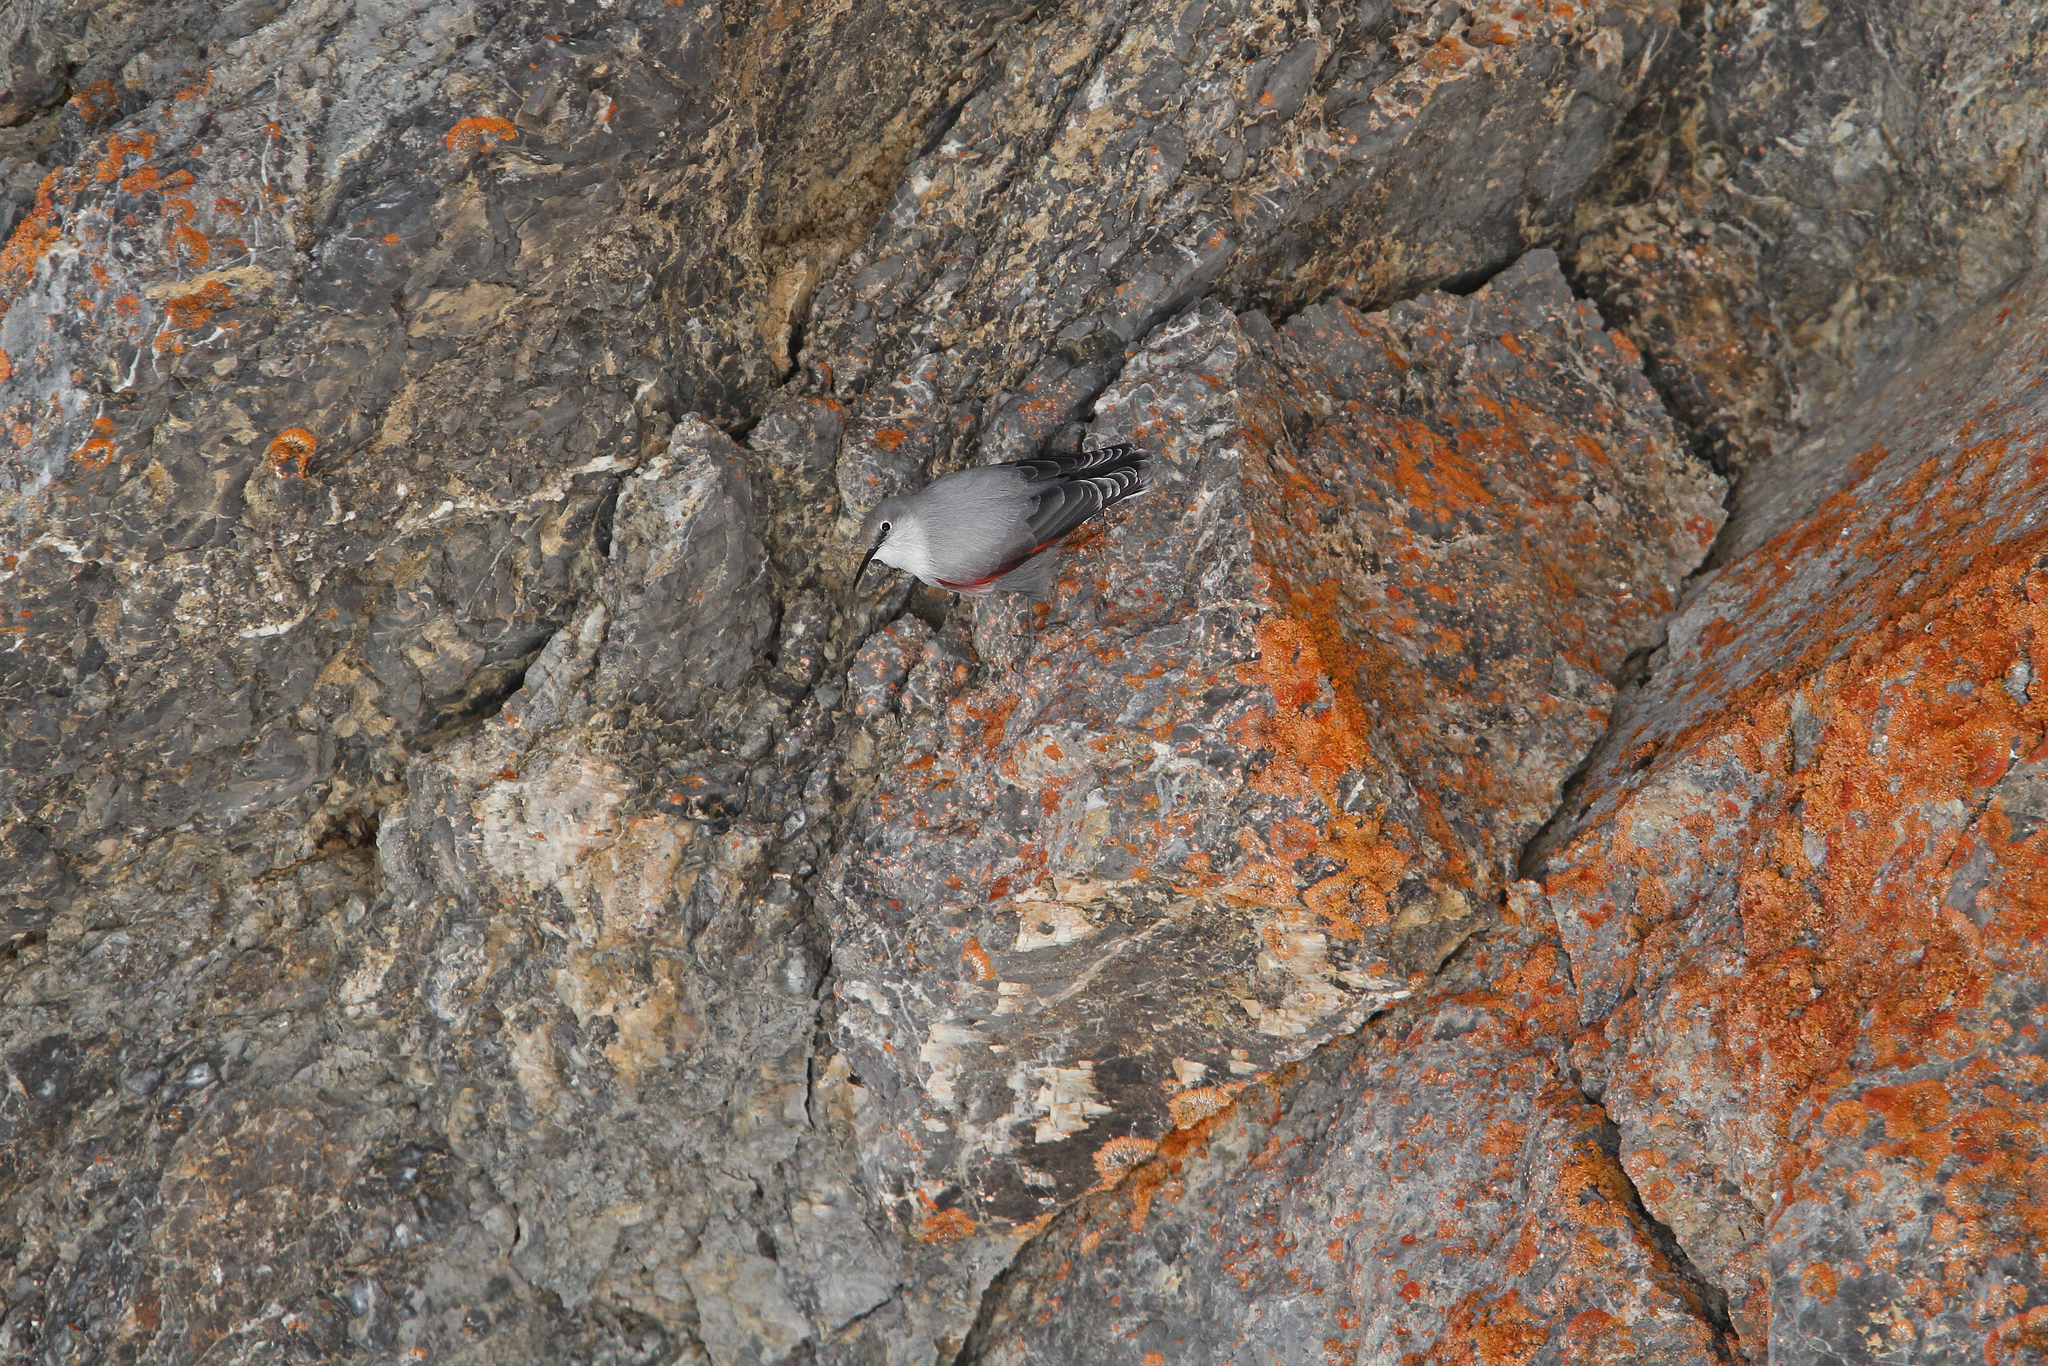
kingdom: Animalia
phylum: Chordata
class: Aves
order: Passeriformes
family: Tichodromidae
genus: Tichodroma
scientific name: Tichodroma muraria
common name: Wallcreeper
